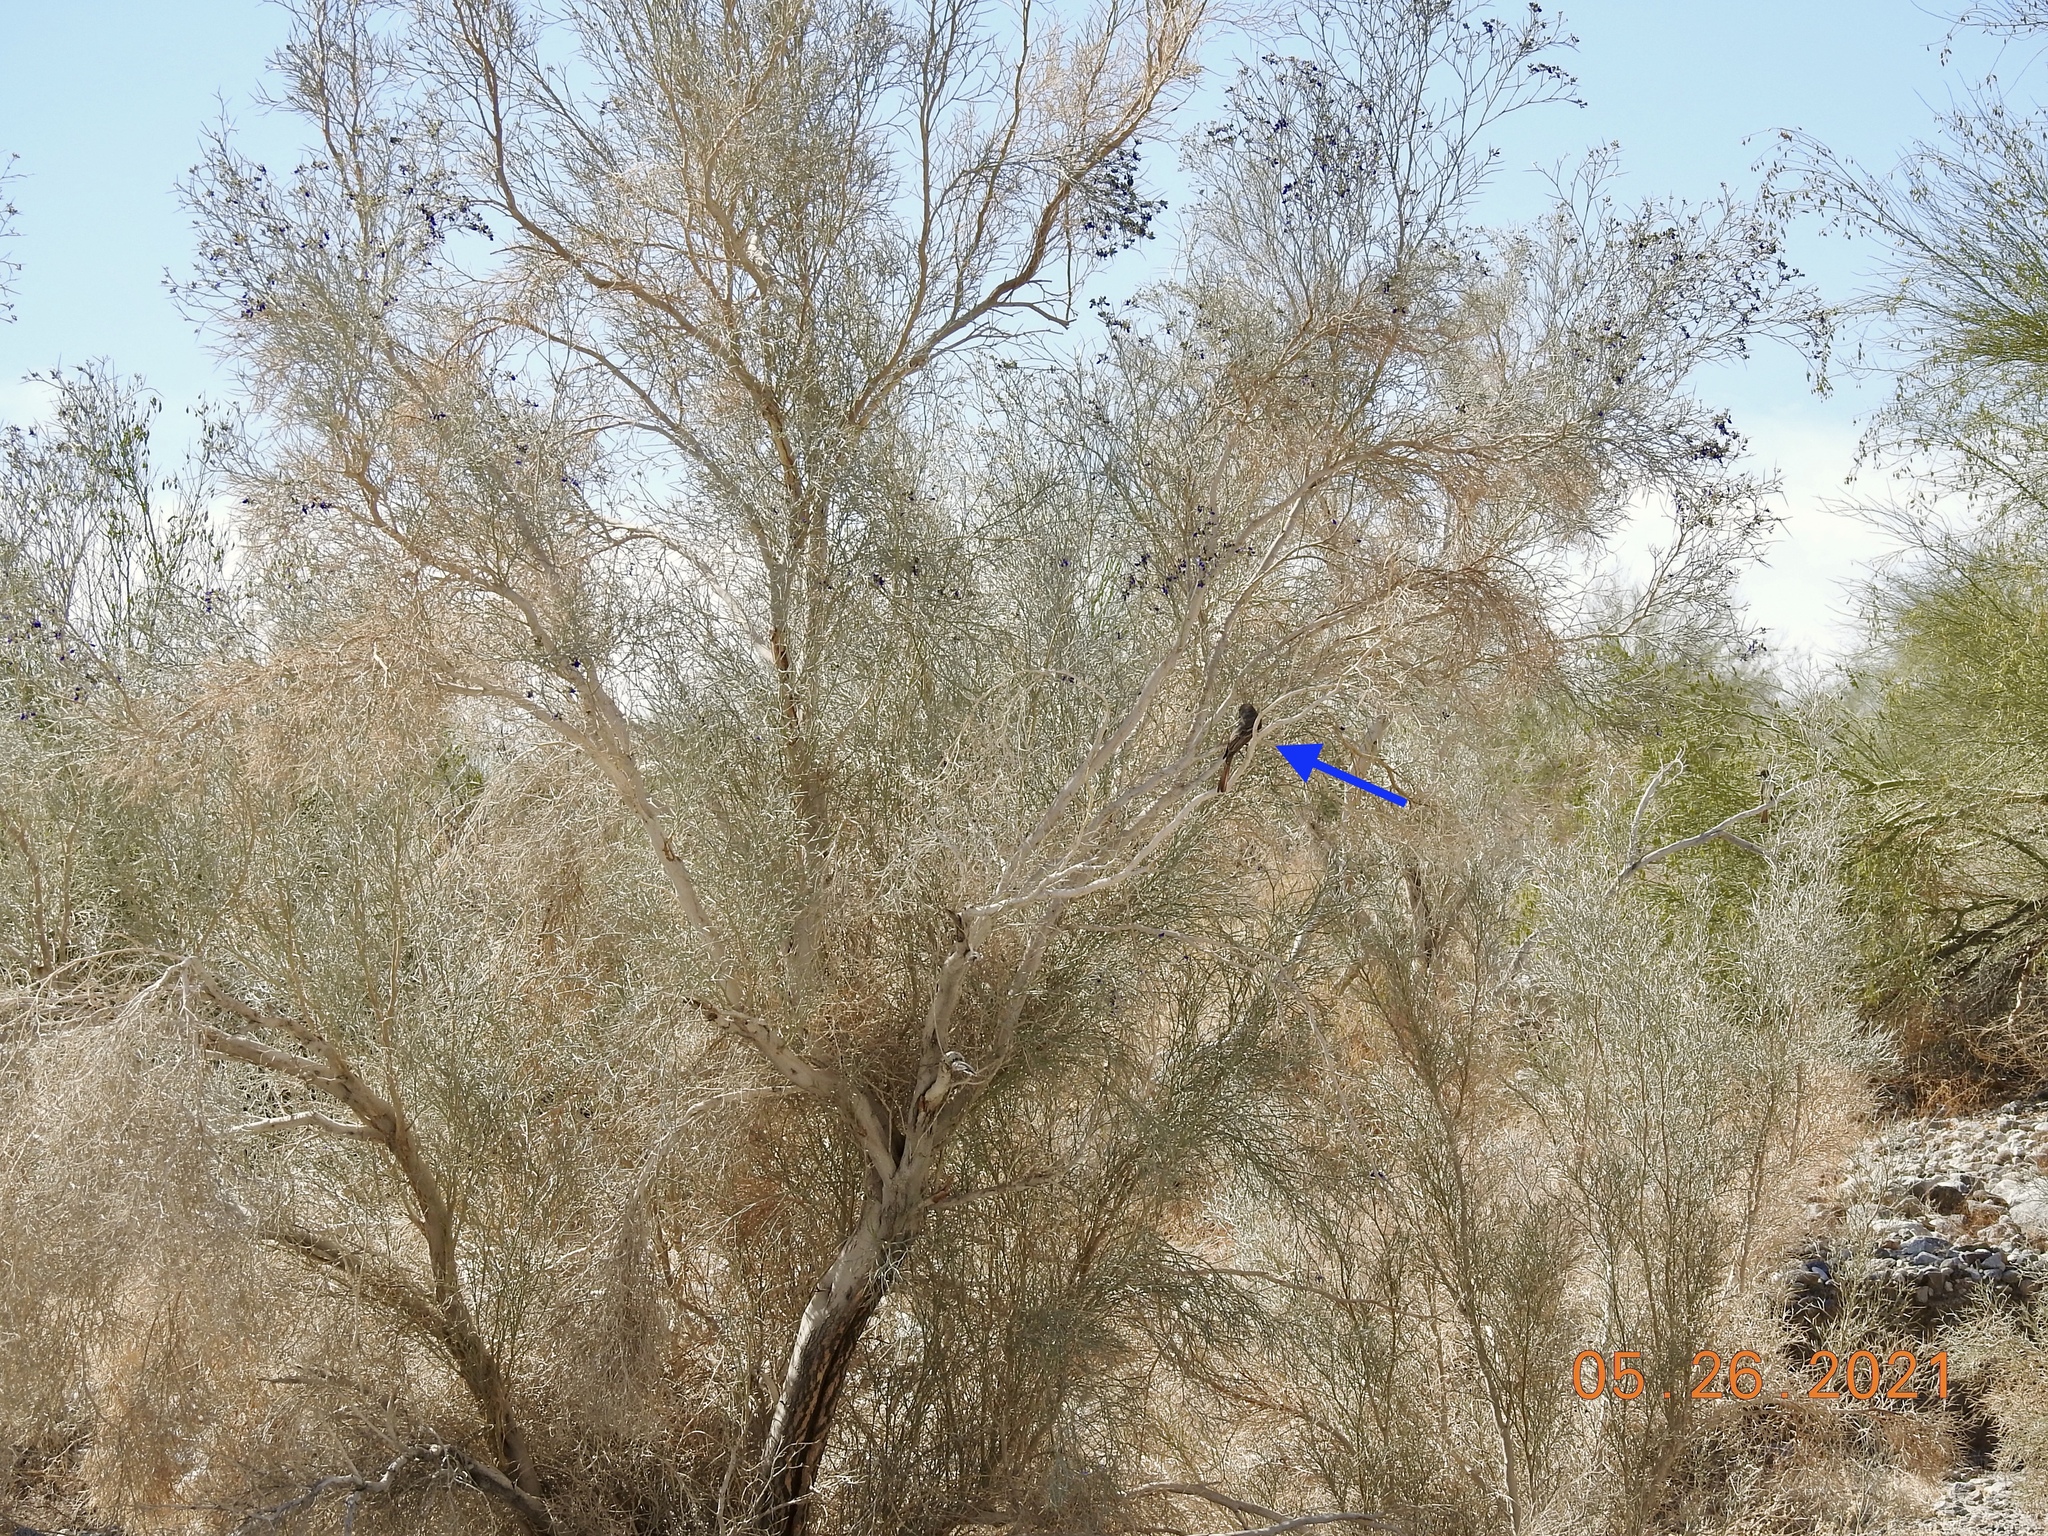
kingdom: Animalia
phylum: Chordata
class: Aves
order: Passeriformes
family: Tyrannidae
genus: Myiarchus
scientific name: Myiarchus cinerascens
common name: Ash-throated flycatcher
